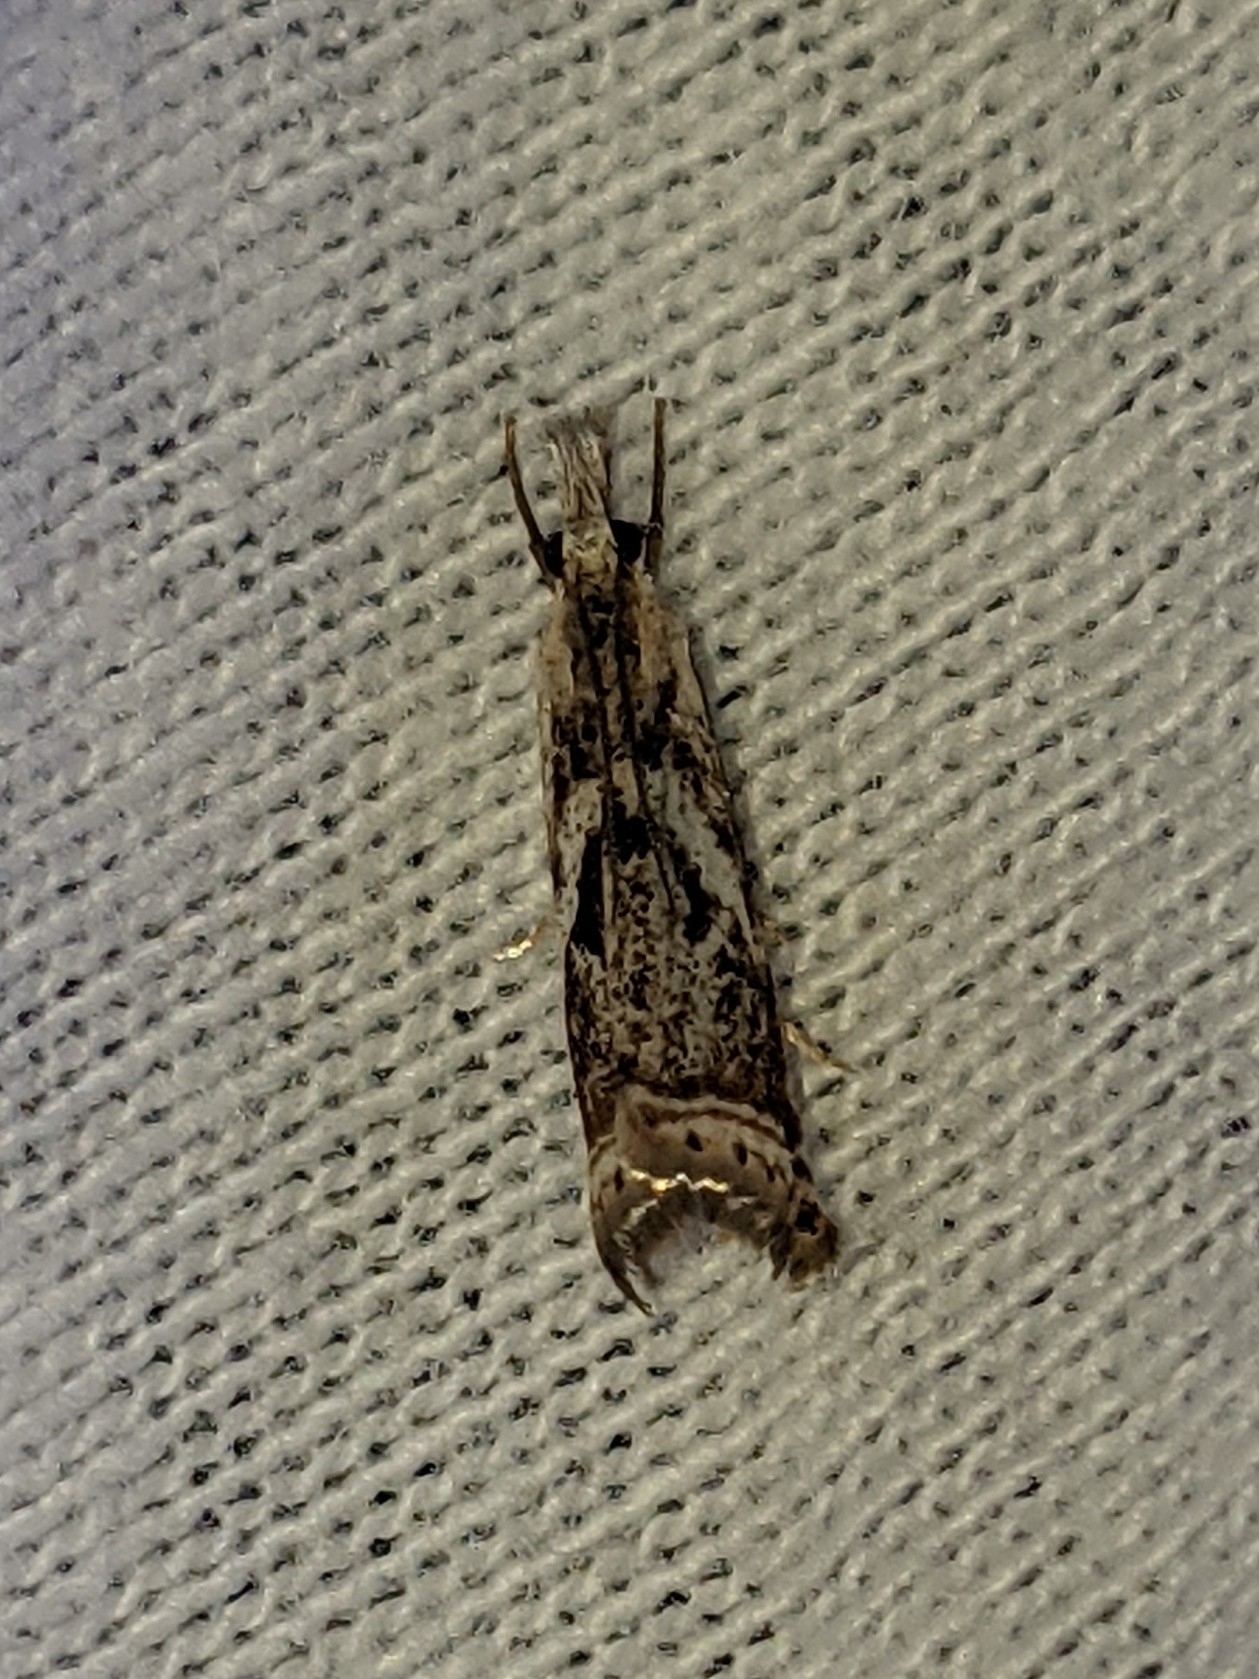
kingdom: Animalia
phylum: Arthropoda
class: Insecta
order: Lepidoptera
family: Crambidae
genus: Microcrambus
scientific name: Microcrambus elegans
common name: Elegant grass-veneer
